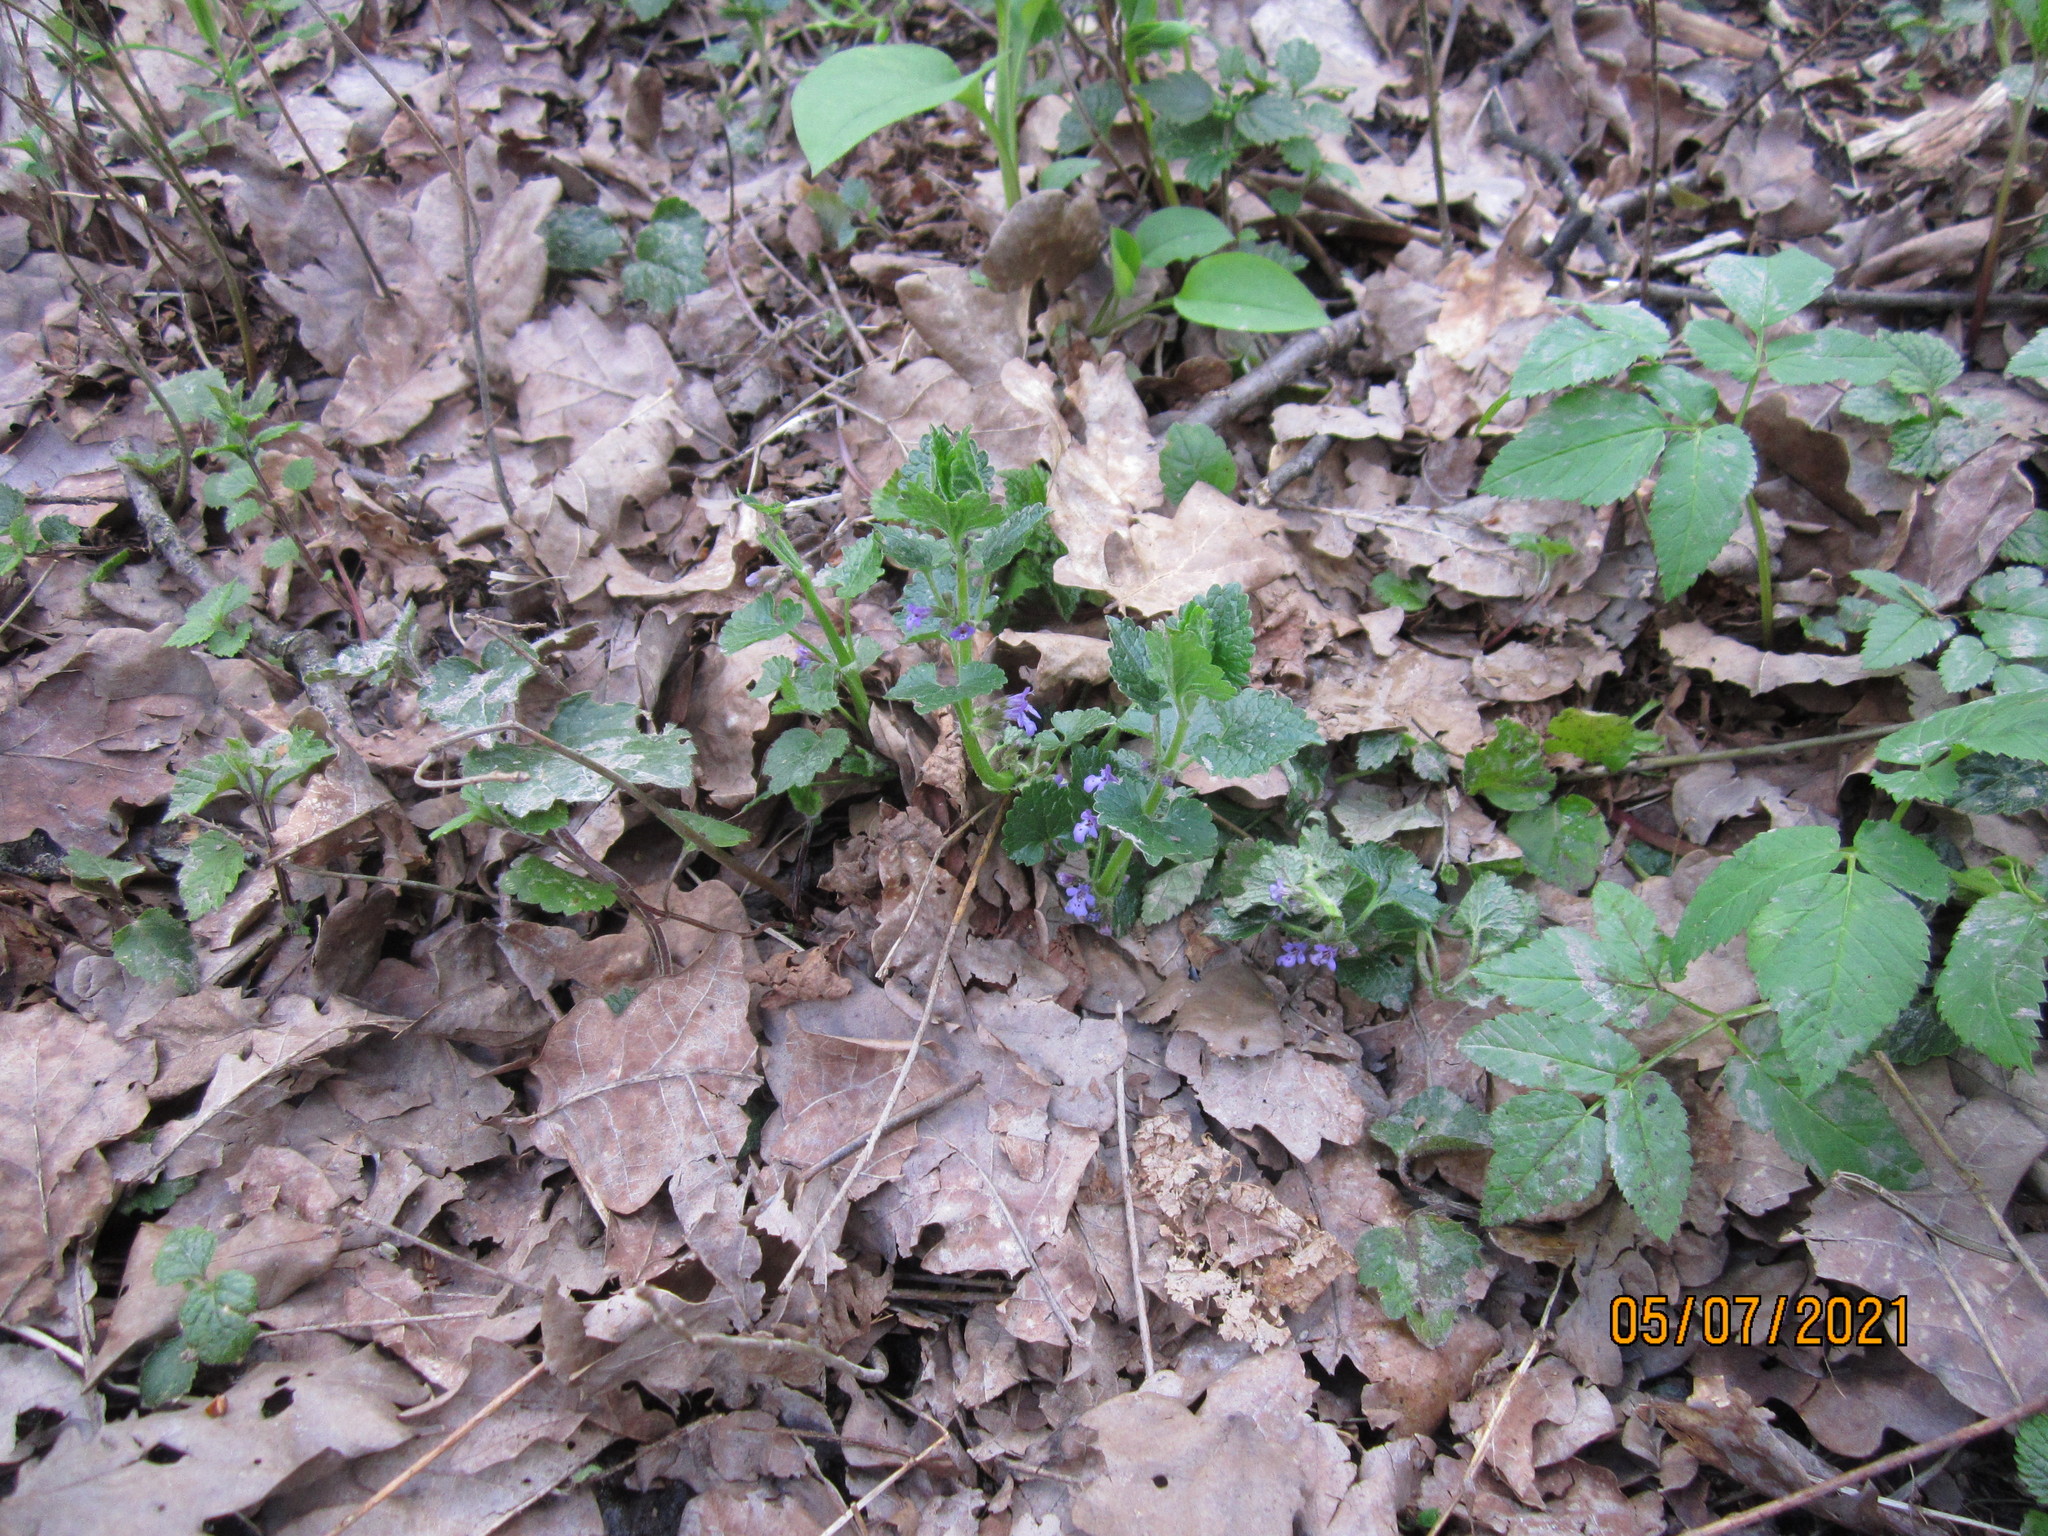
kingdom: Plantae
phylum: Tracheophyta
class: Magnoliopsida
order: Lamiales
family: Lamiaceae
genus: Glechoma
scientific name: Glechoma hederacea
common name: Ground ivy
